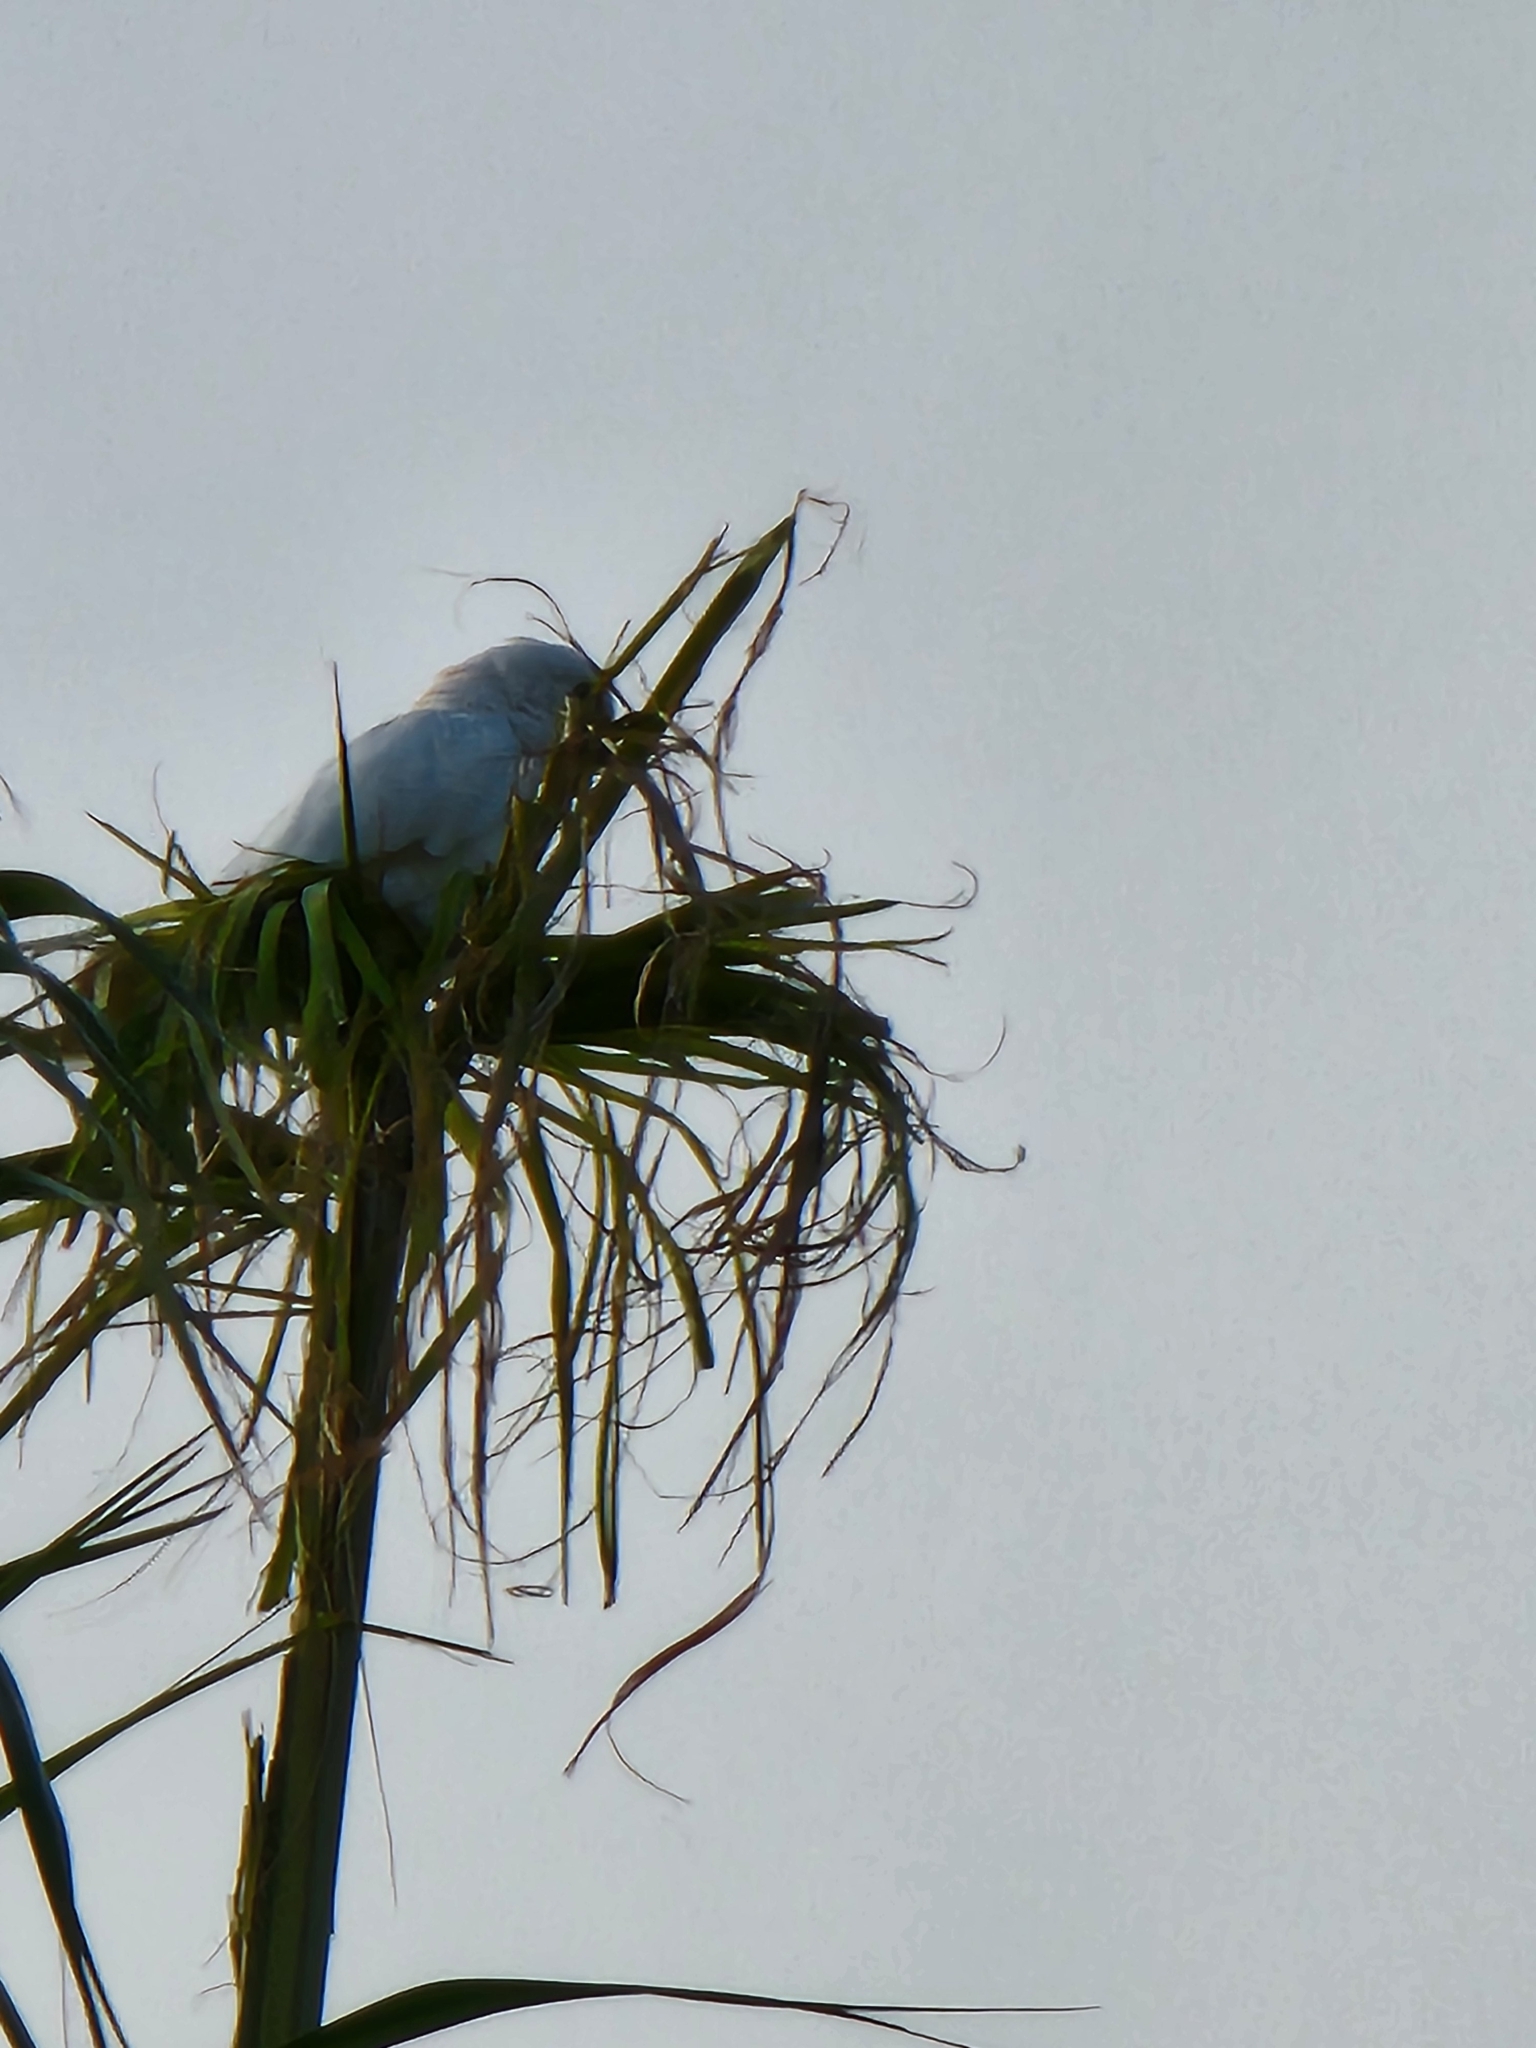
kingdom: Animalia
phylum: Chordata
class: Aves
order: Psittaciformes
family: Psittacidae
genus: Cacatua
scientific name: Cacatua sanguinea
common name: Little corella
